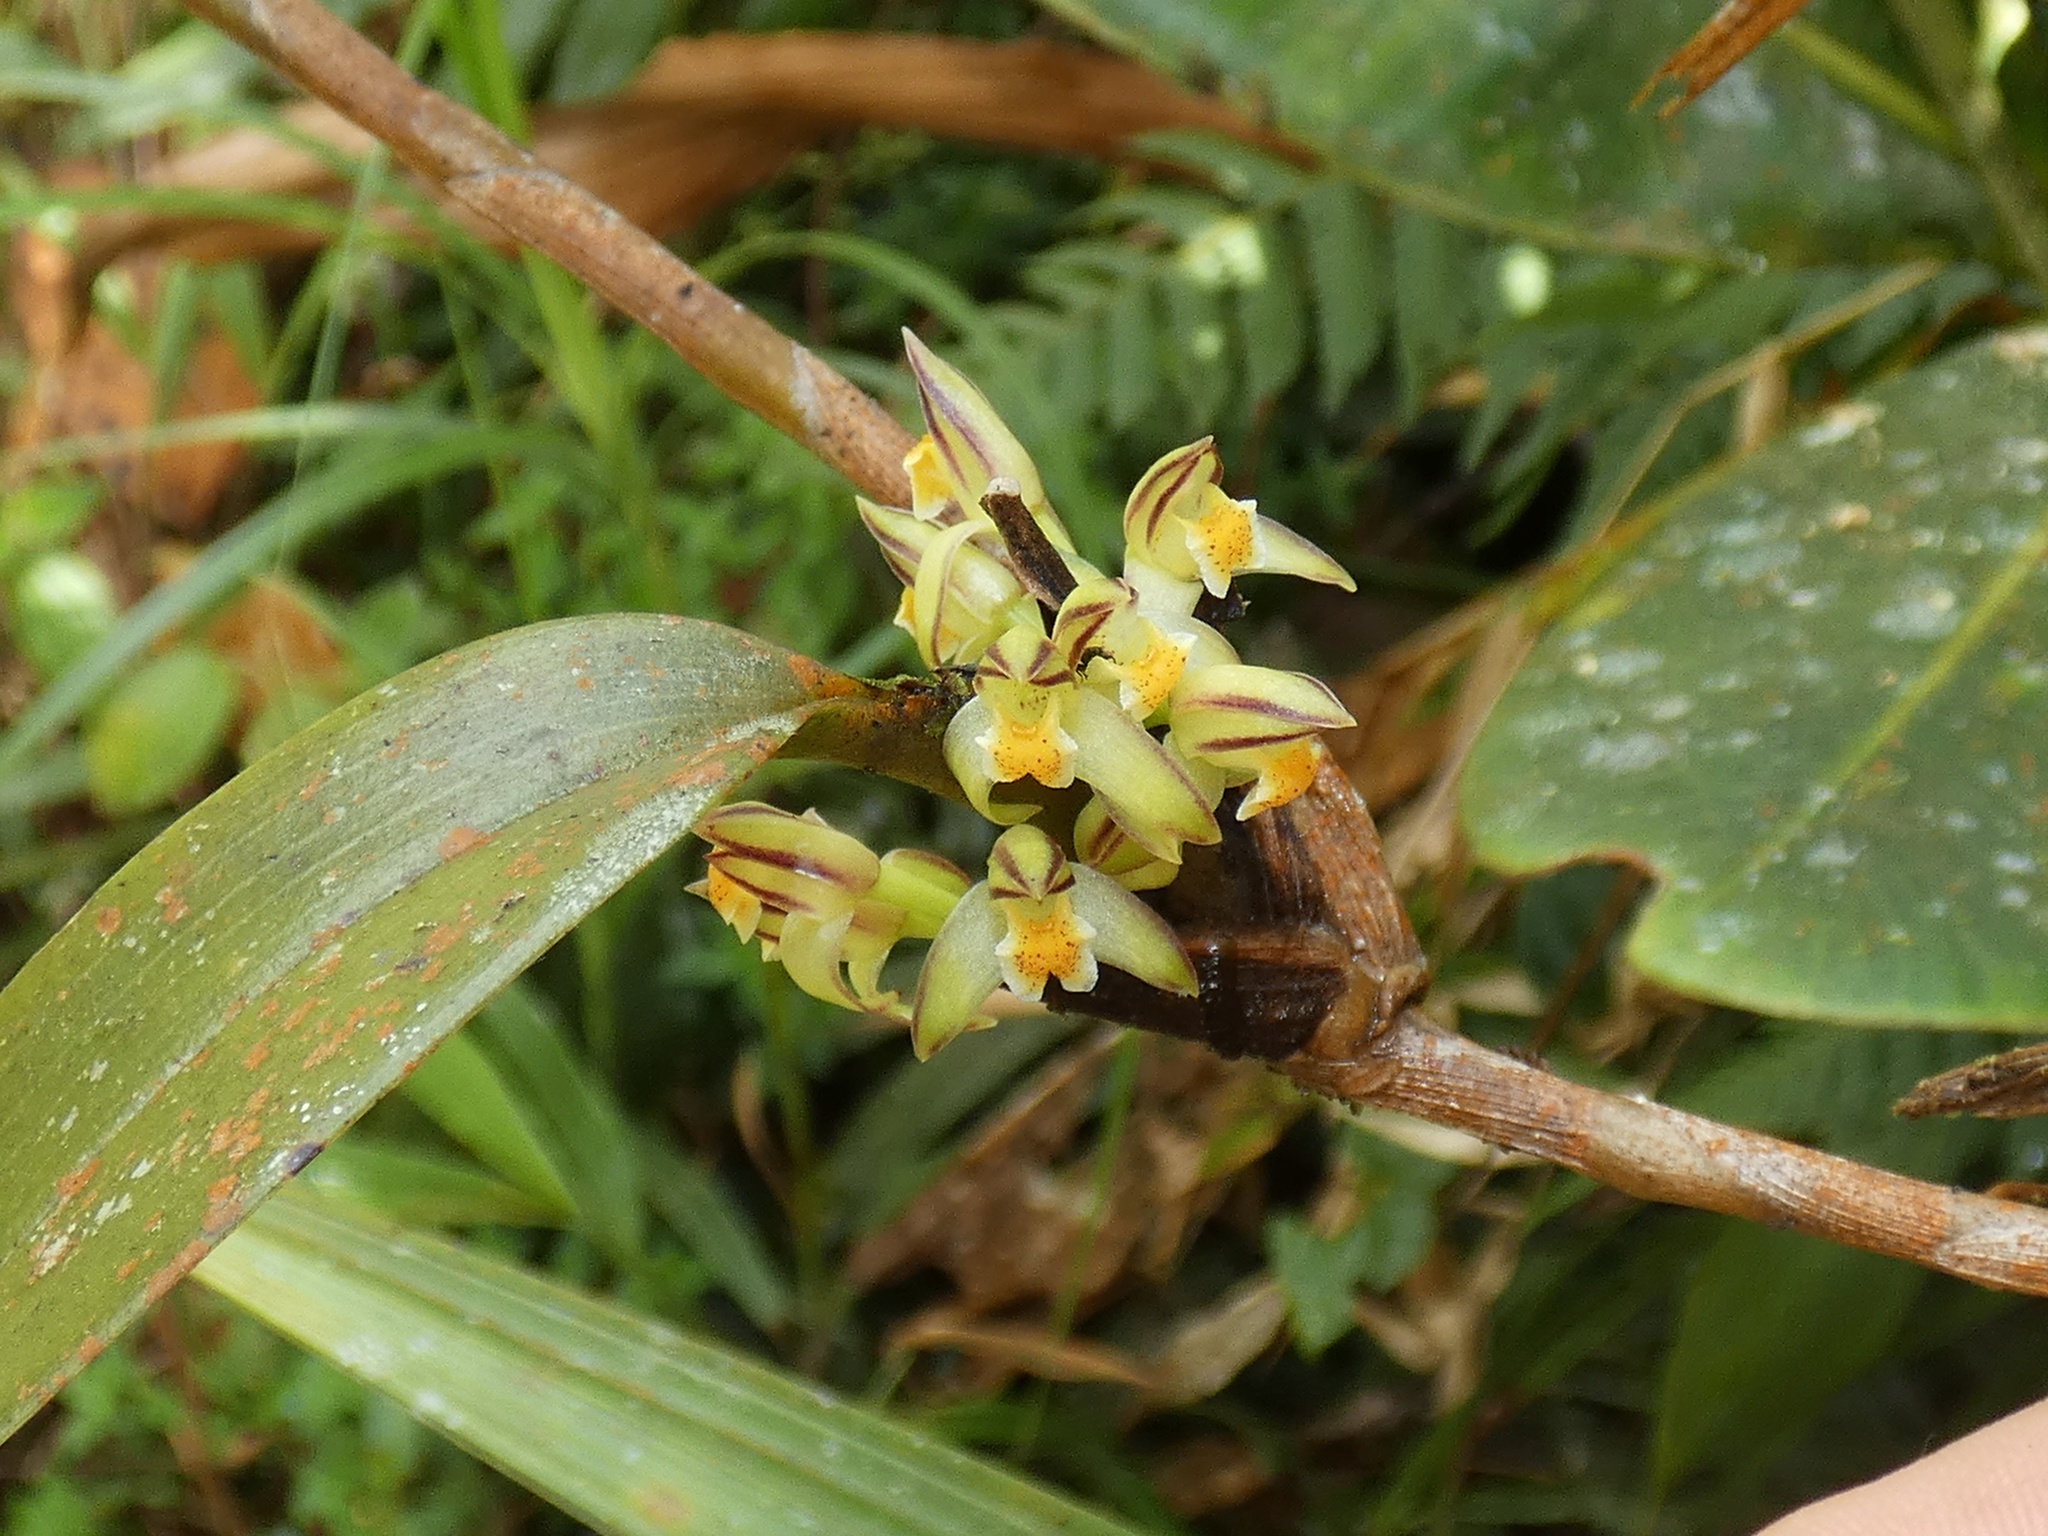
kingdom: Plantae
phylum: Tracheophyta
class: Liliopsida
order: Asparagales
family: Orchidaceae
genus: Maxillaria
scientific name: Maxillaria repens
